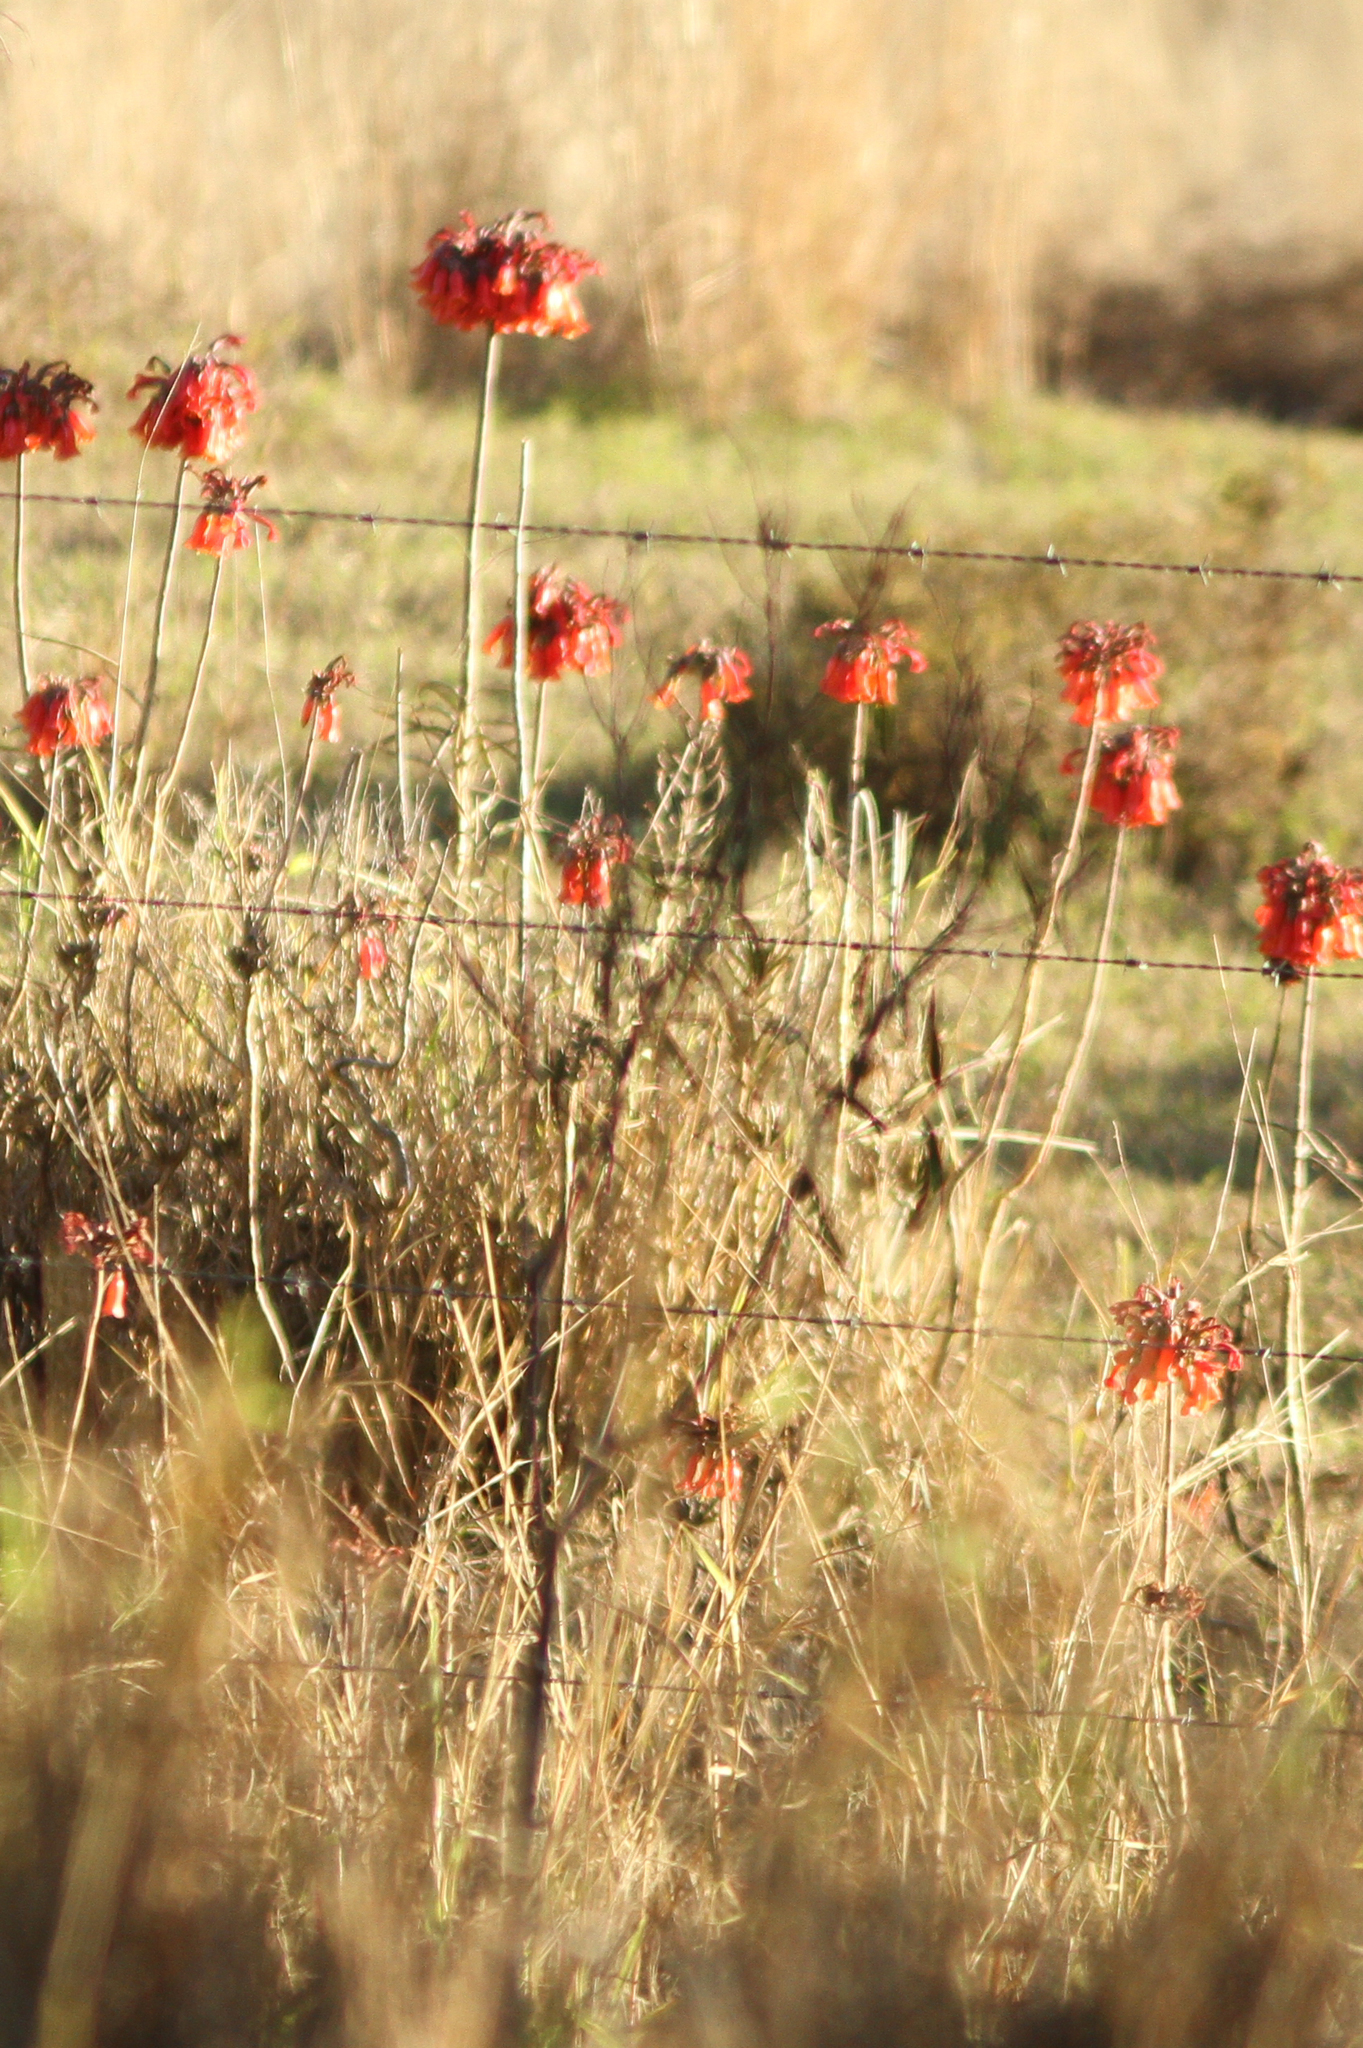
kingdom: Plantae
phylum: Tracheophyta
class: Magnoliopsida
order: Saxifragales
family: Crassulaceae
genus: Kalanchoe
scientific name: Kalanchoe delagoensis
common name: Chandelier plant
